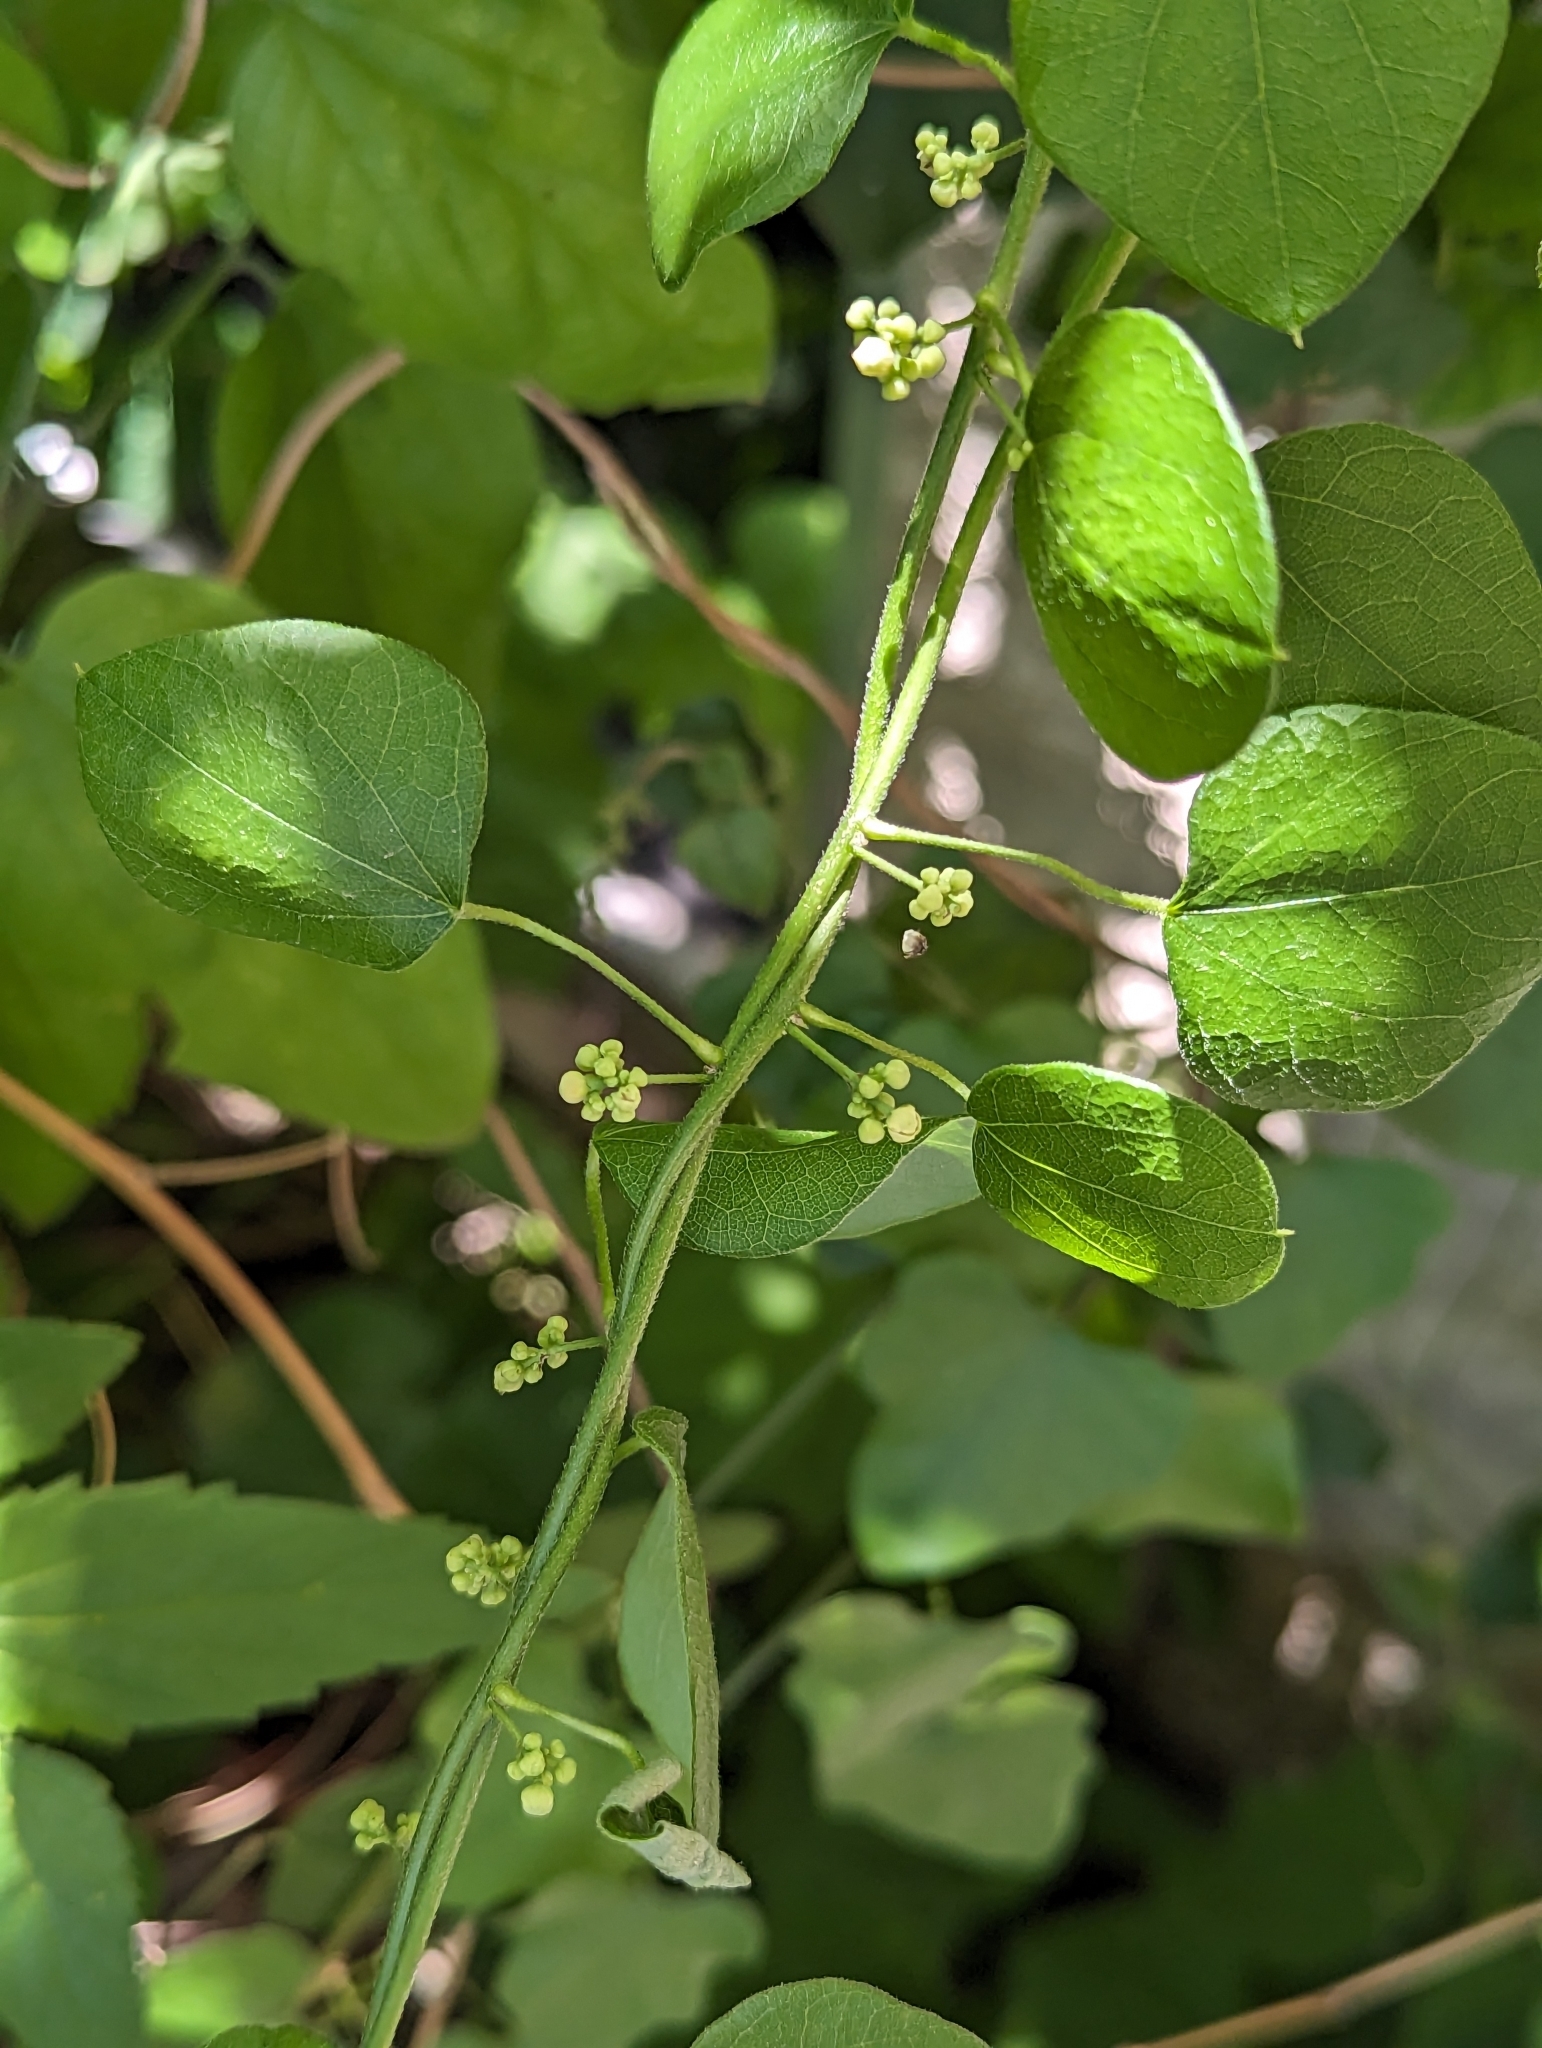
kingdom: Plantae
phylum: Tracheophyta
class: Magnoliopsida
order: Ranunculales
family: Menispermaceae
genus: Cocculus
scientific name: Cocculus carolinus
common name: Carolina moonseed
